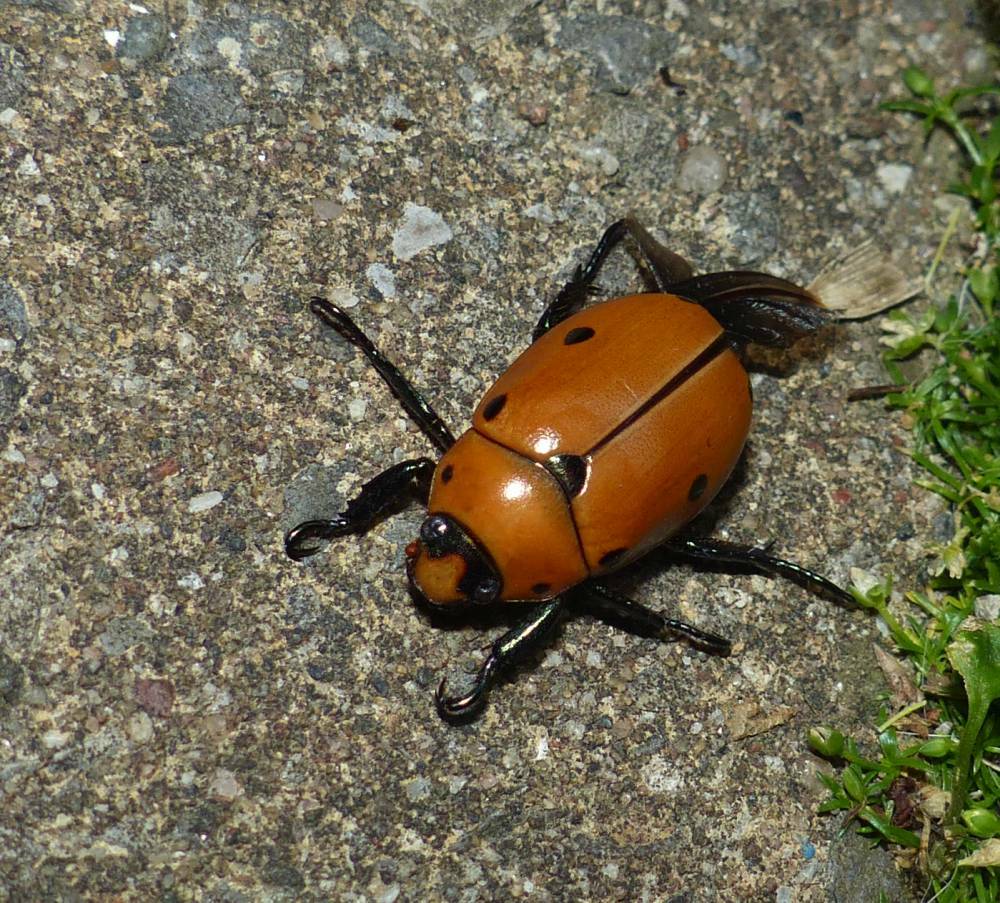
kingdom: Animalia
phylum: Arthropoda
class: Insecta
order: Coleoptera
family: Scarabaeidae
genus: Pelidnota
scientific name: Pelidnota punctata
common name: Grapevine beetle
